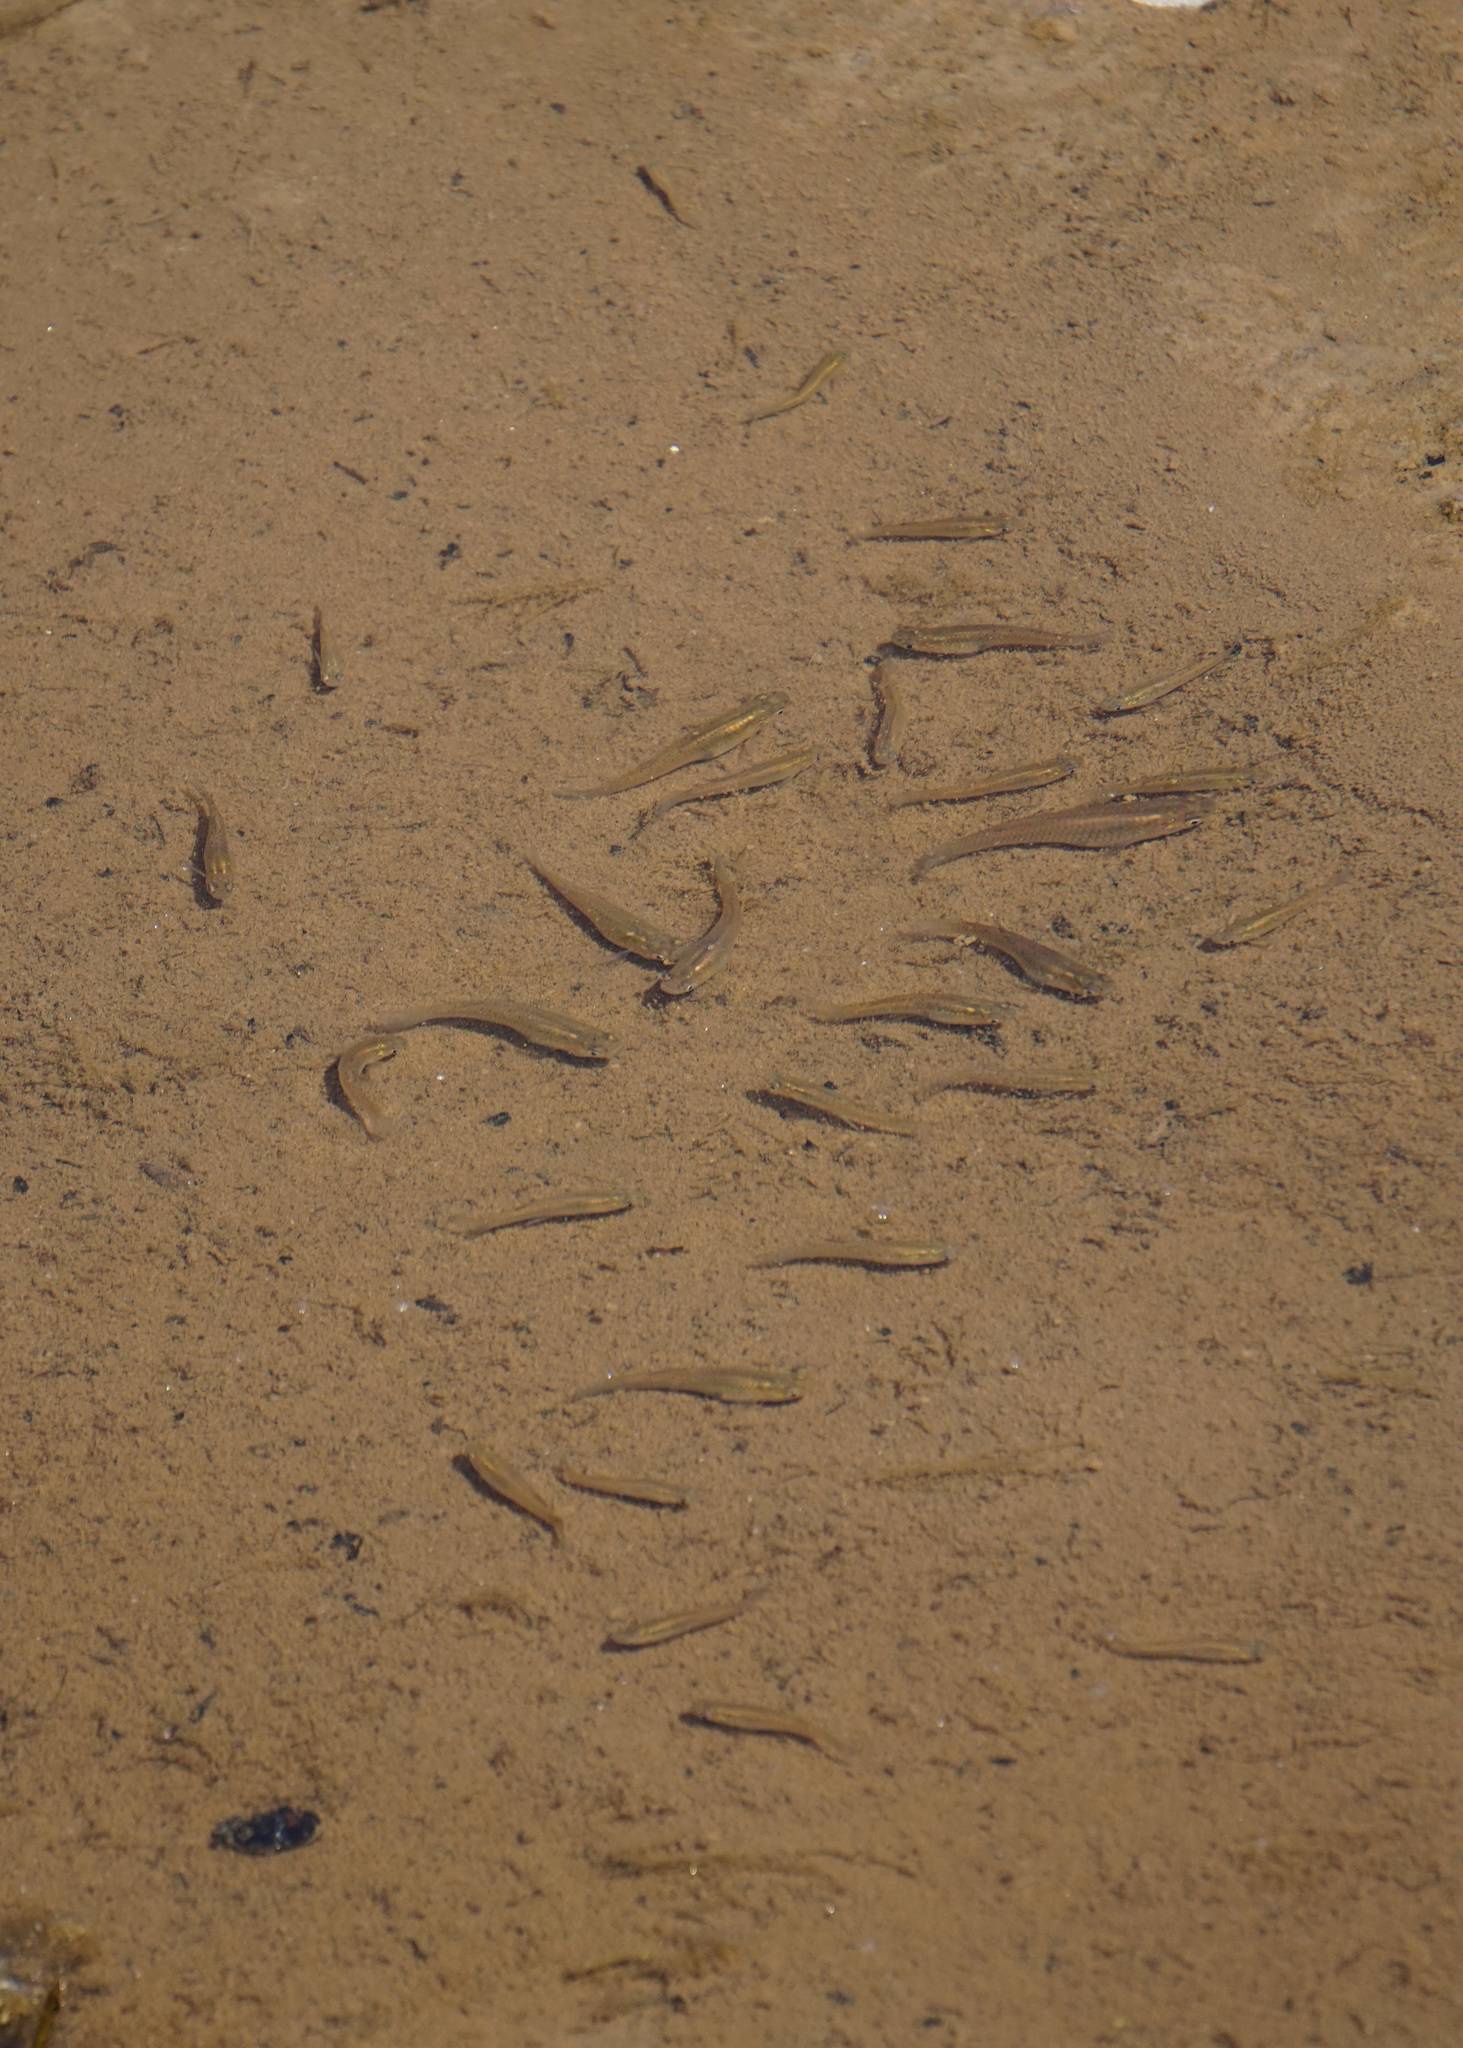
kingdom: Animalia
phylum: Chordata
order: Cyprinodontiformes
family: Poeciliidae
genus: Gambusia
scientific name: Gambusia holbrooki
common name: Eastern mosquitofish
